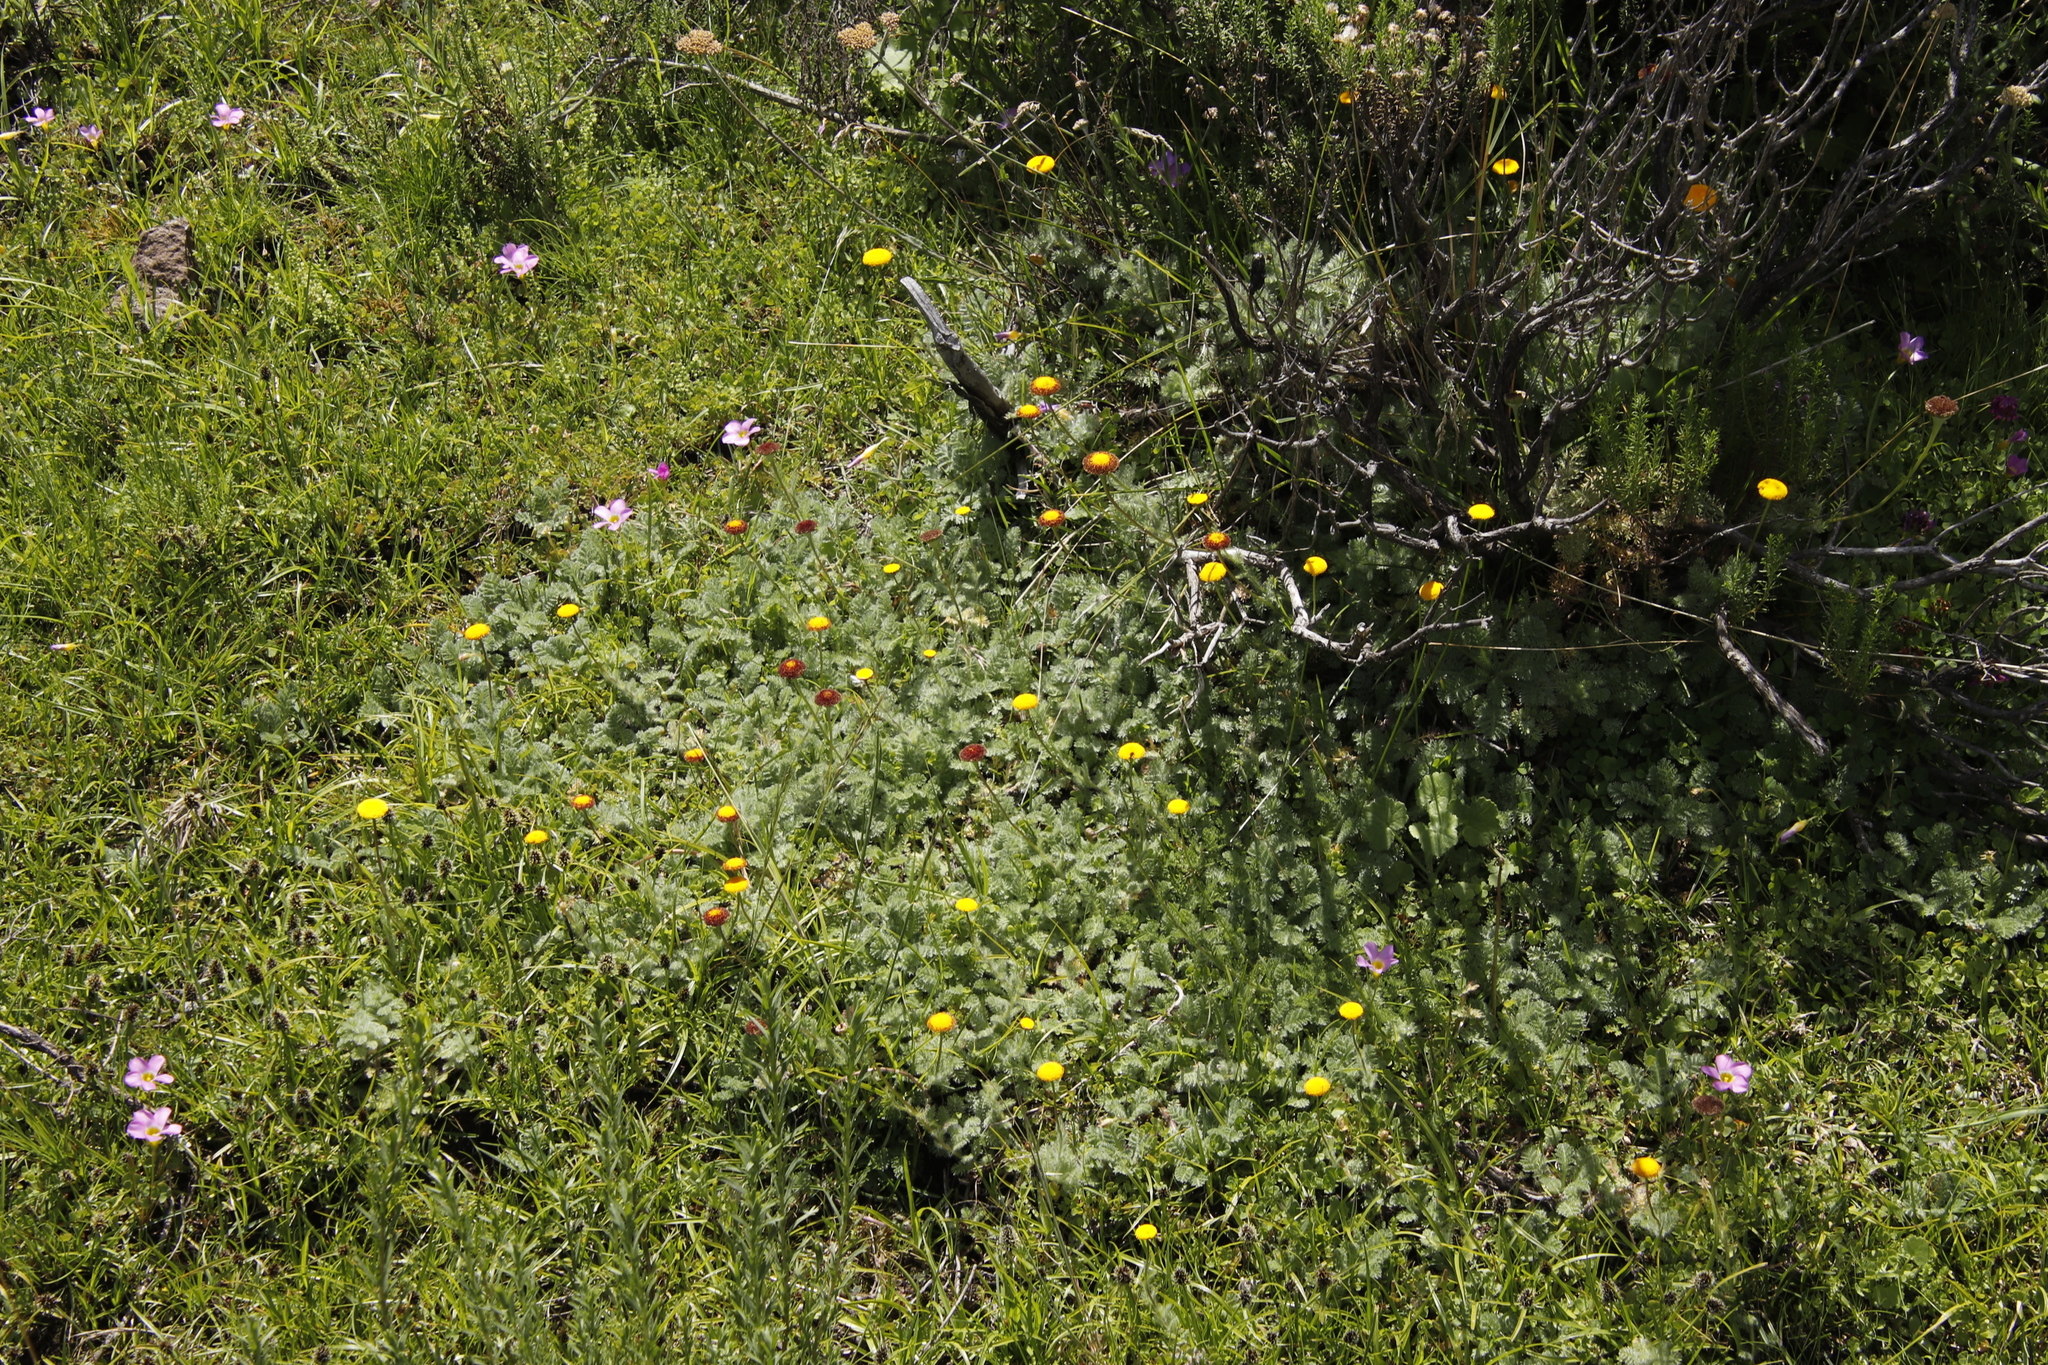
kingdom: Plantae
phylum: Tracheophyta
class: Magnoliopsida
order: Asterales
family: Asteraceae
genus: Cotula
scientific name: Cotula socialis
